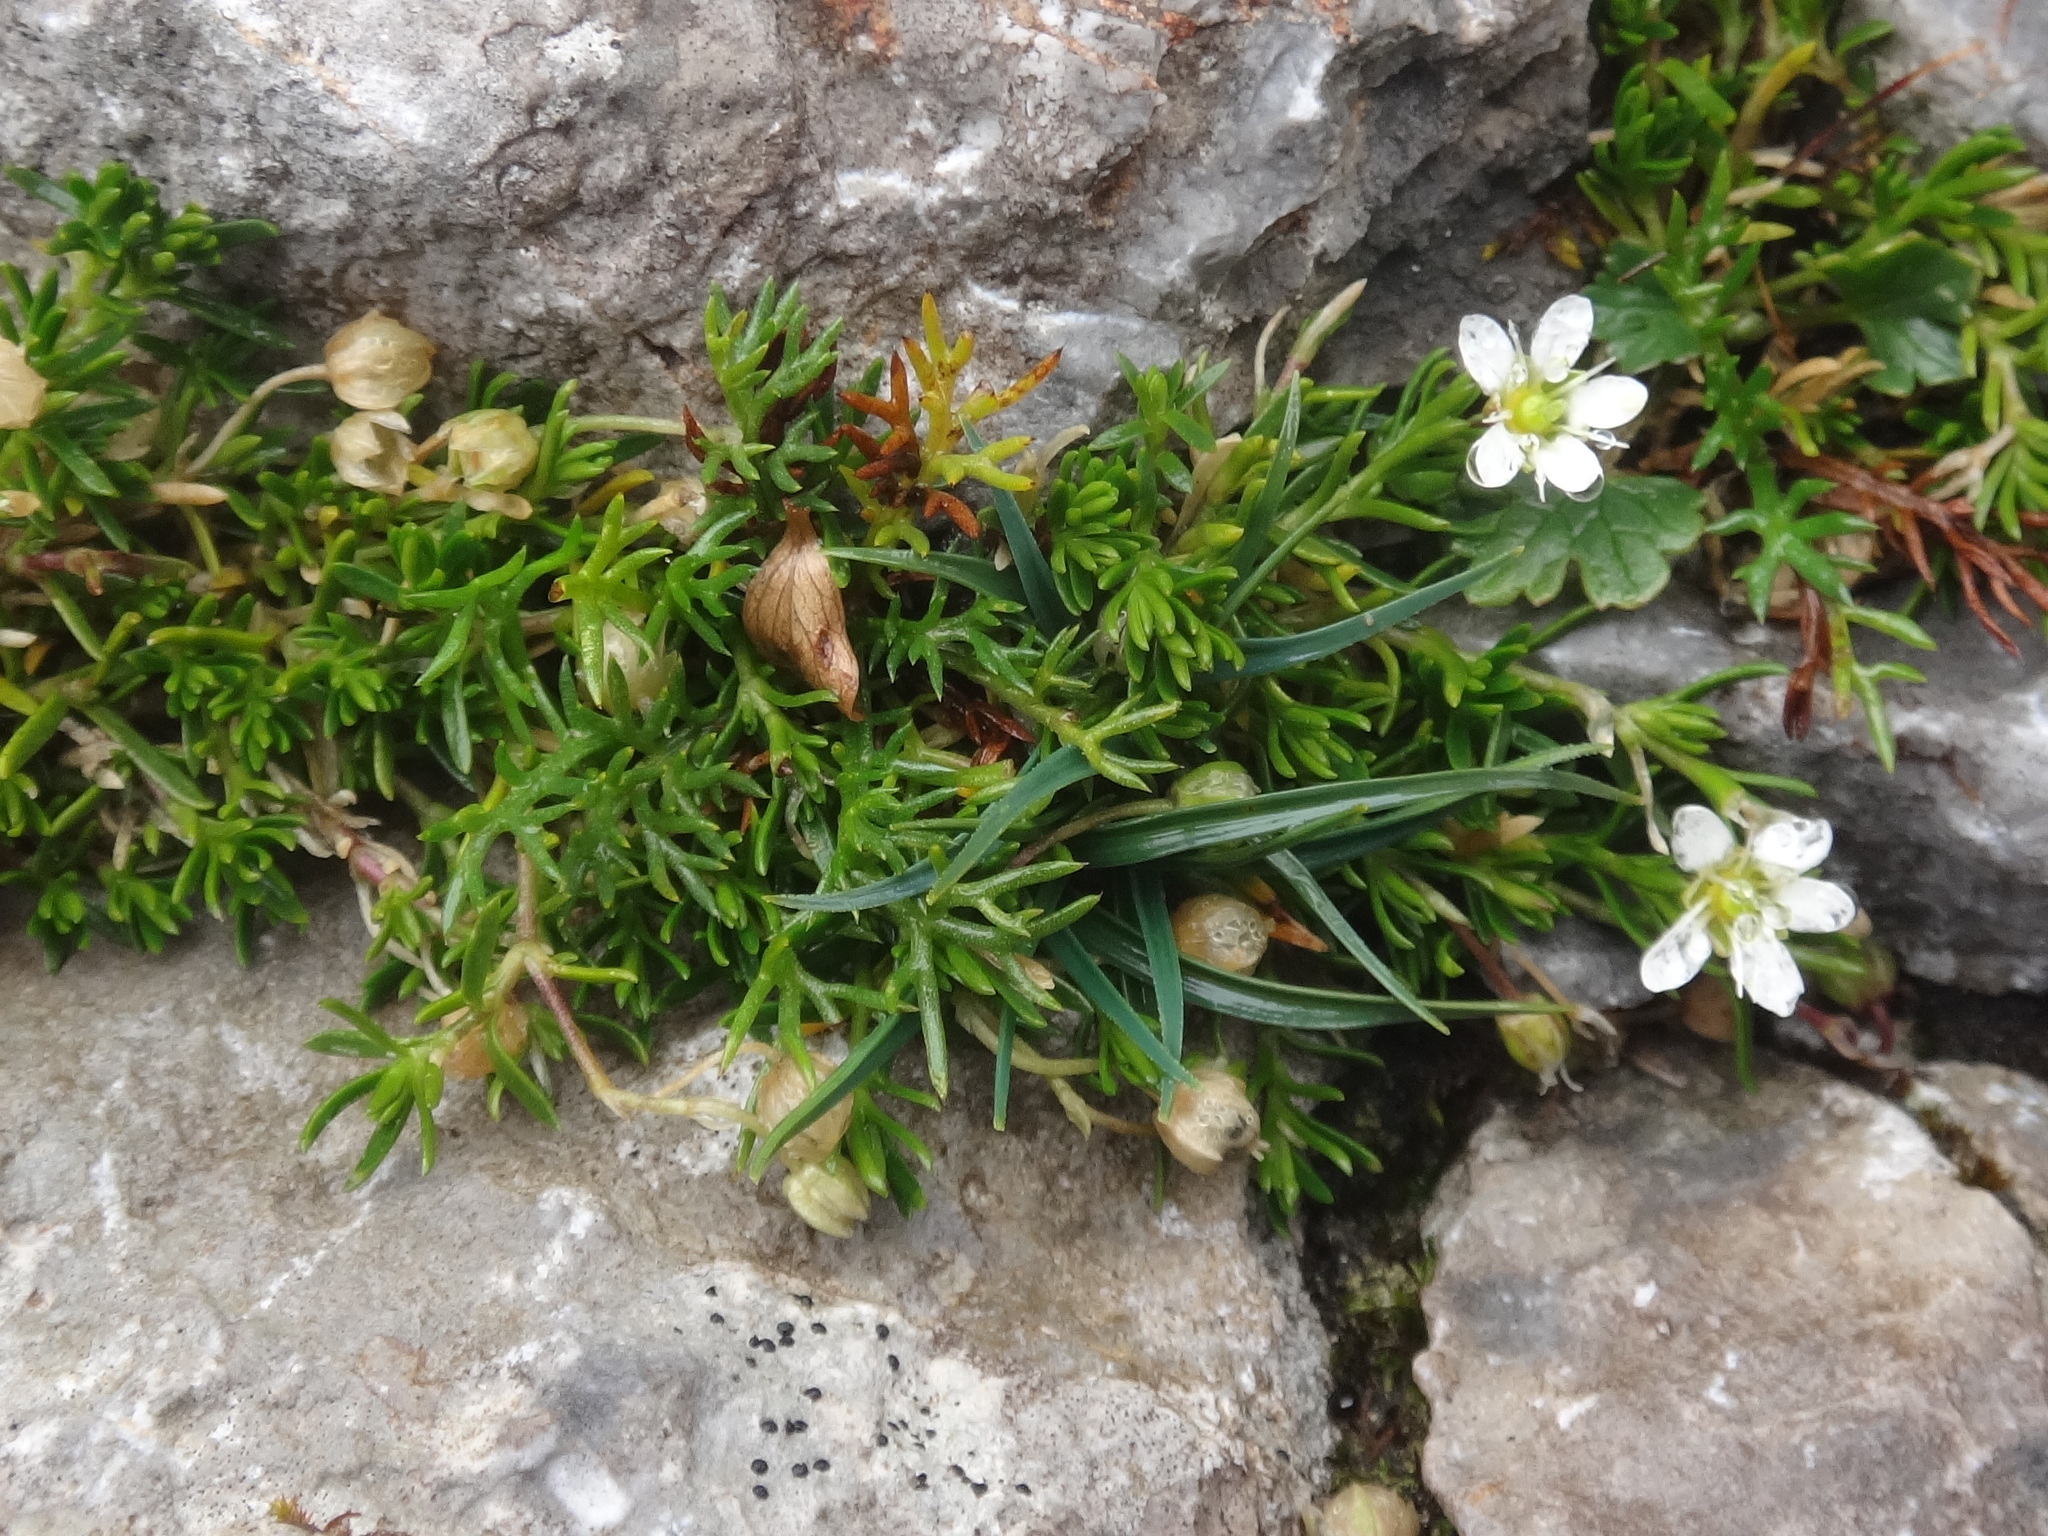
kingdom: Plantae
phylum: Tracheophyta
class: Magnoliopsida
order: Caryophyllales
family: Caryophyllaceae
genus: Moehringia
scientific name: Moehringia ciliata
